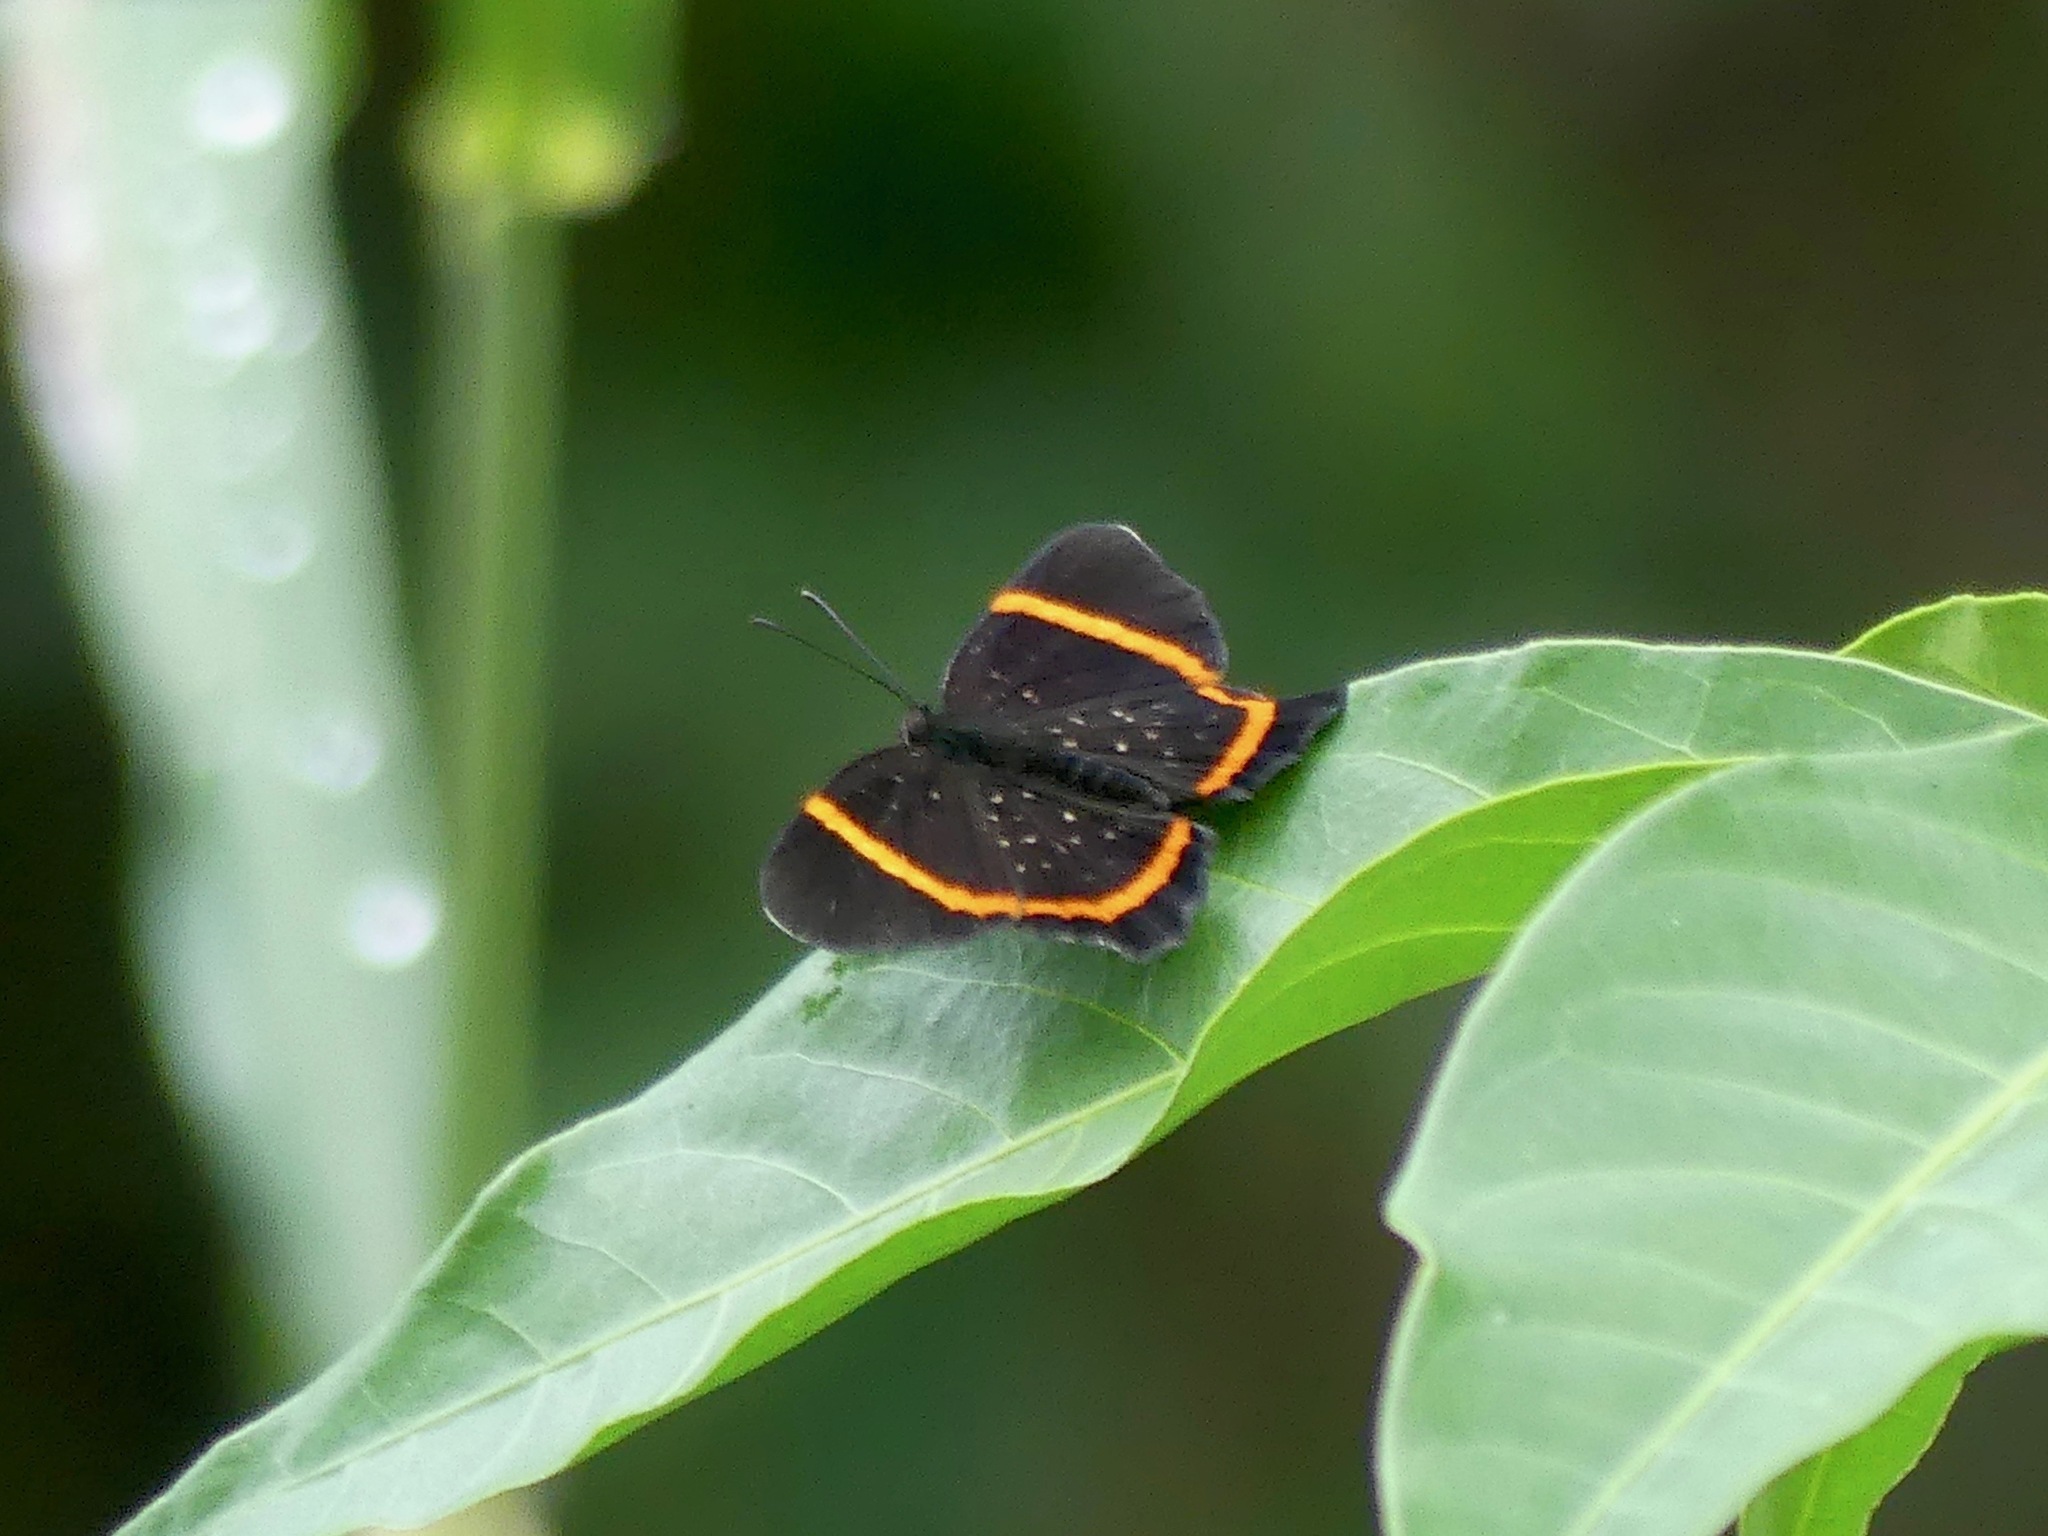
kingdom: Animalia
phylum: Arthropoda
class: Insecta
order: Lepidoptera
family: Riodinidae
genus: Riodina
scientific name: Riodina lysippus
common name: Lysippus metalmark
